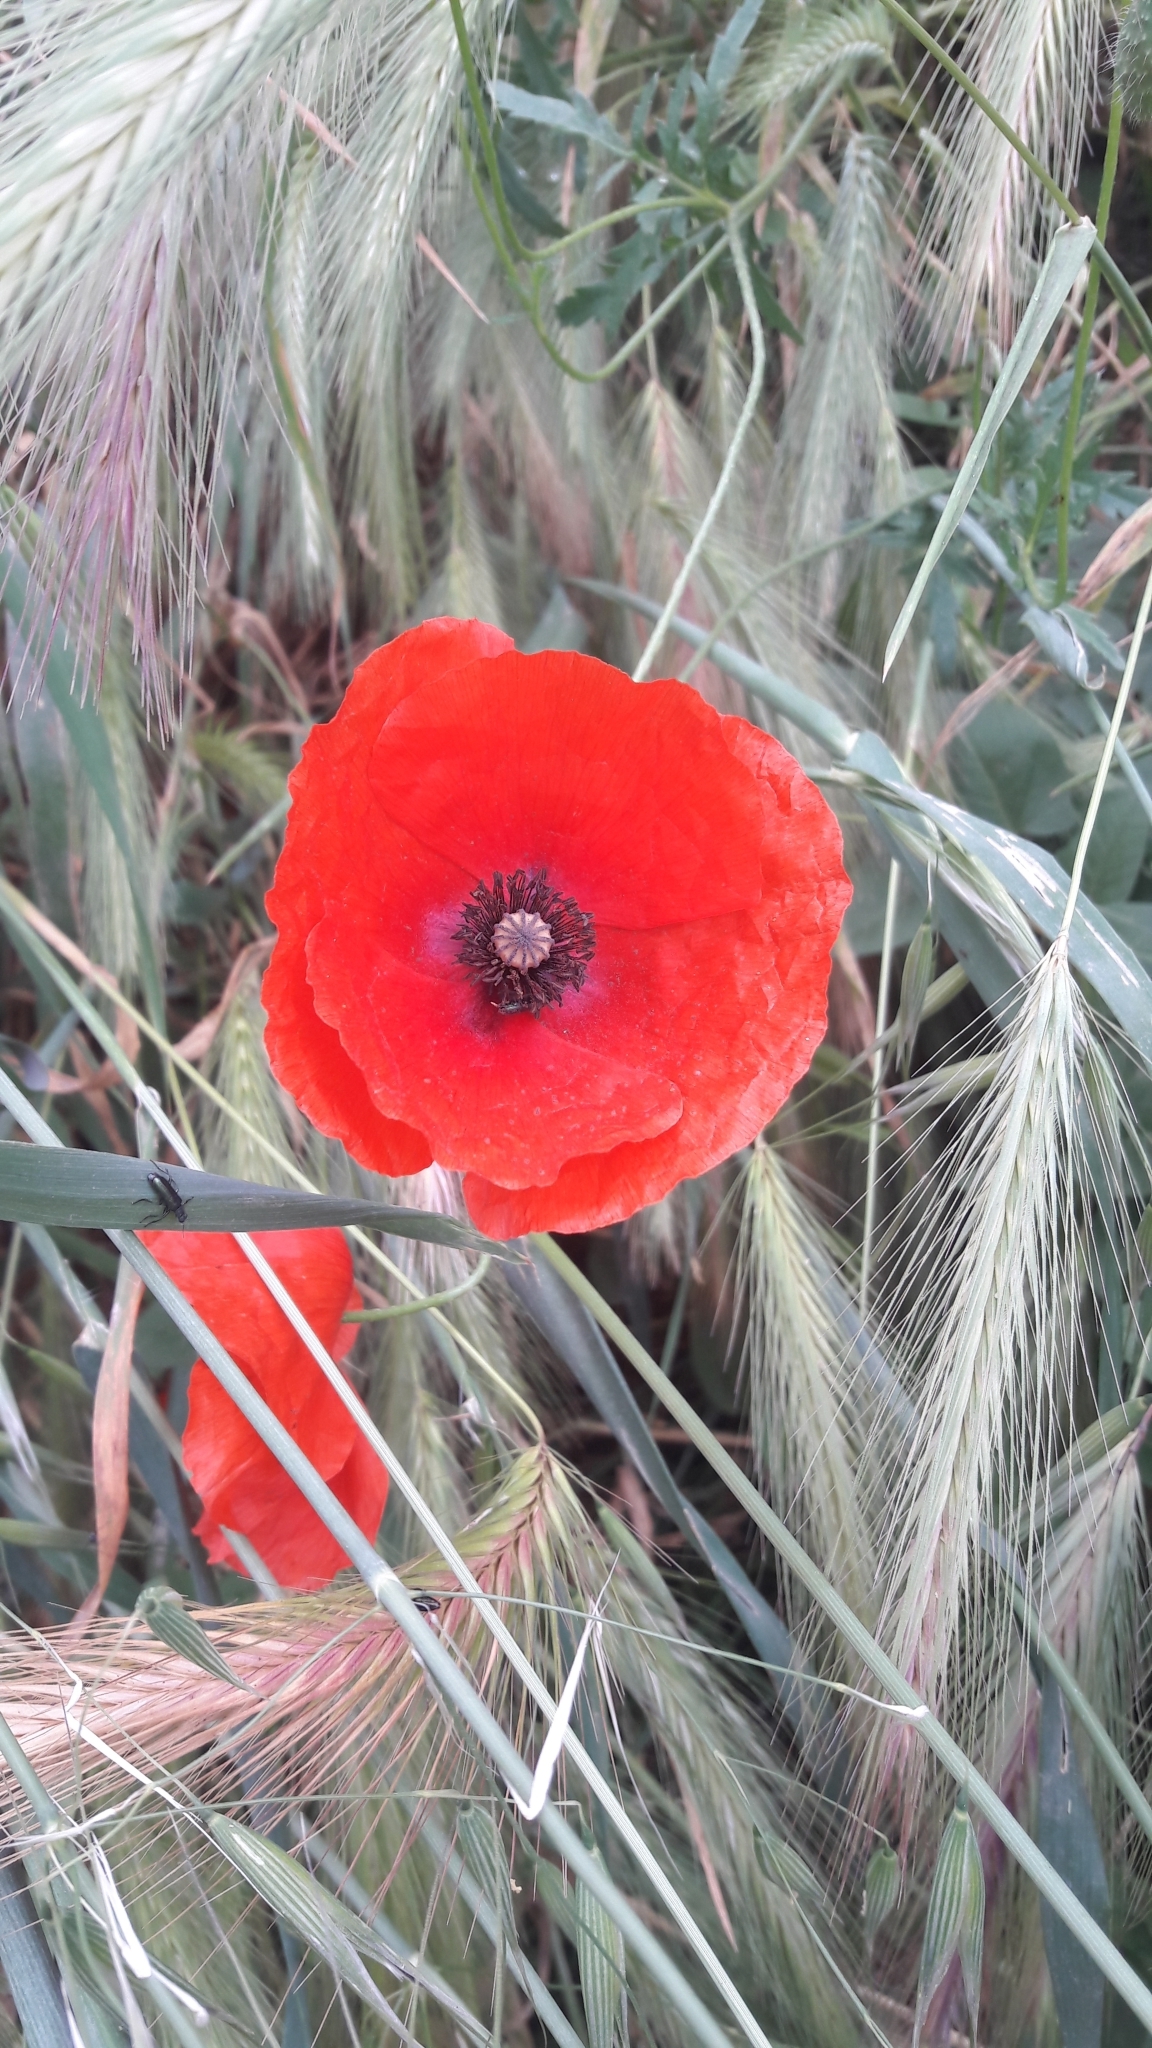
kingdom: Plantae
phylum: Tracheophyta
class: Magnoliopsida
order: Ranunculales
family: Papaveraceae
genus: Papaver
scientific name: Papaver rhoeas
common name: Corn poppy
